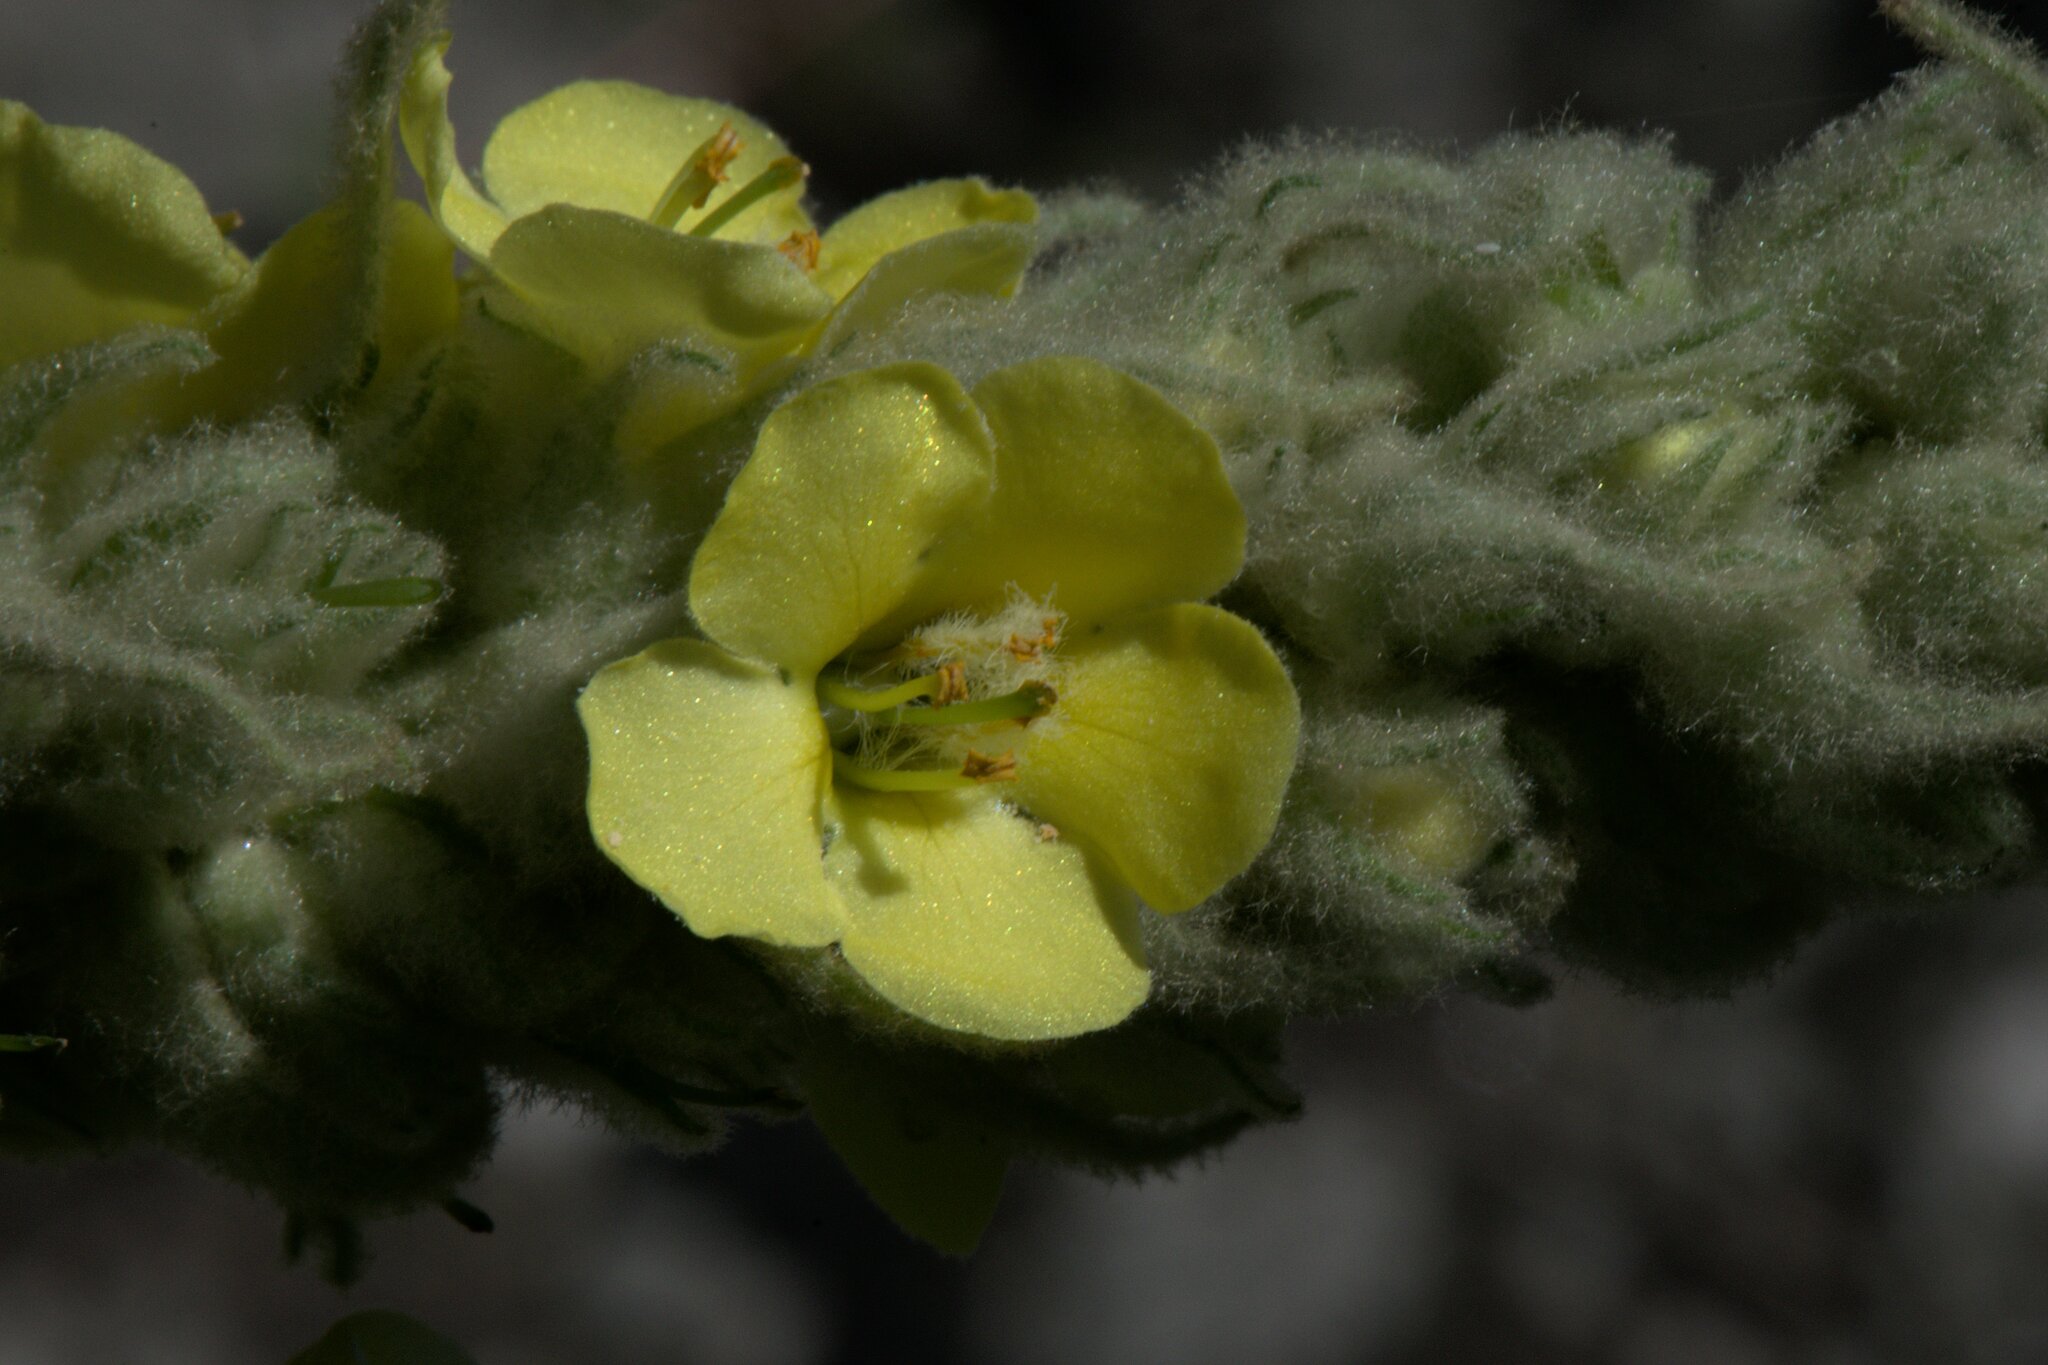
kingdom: Plantae
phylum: Tracheophyta
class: Magnoliopsida
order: Lamiales
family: Scrophulariaceae
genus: Verbascum
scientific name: Verbascum thapsus
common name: Common mullein
